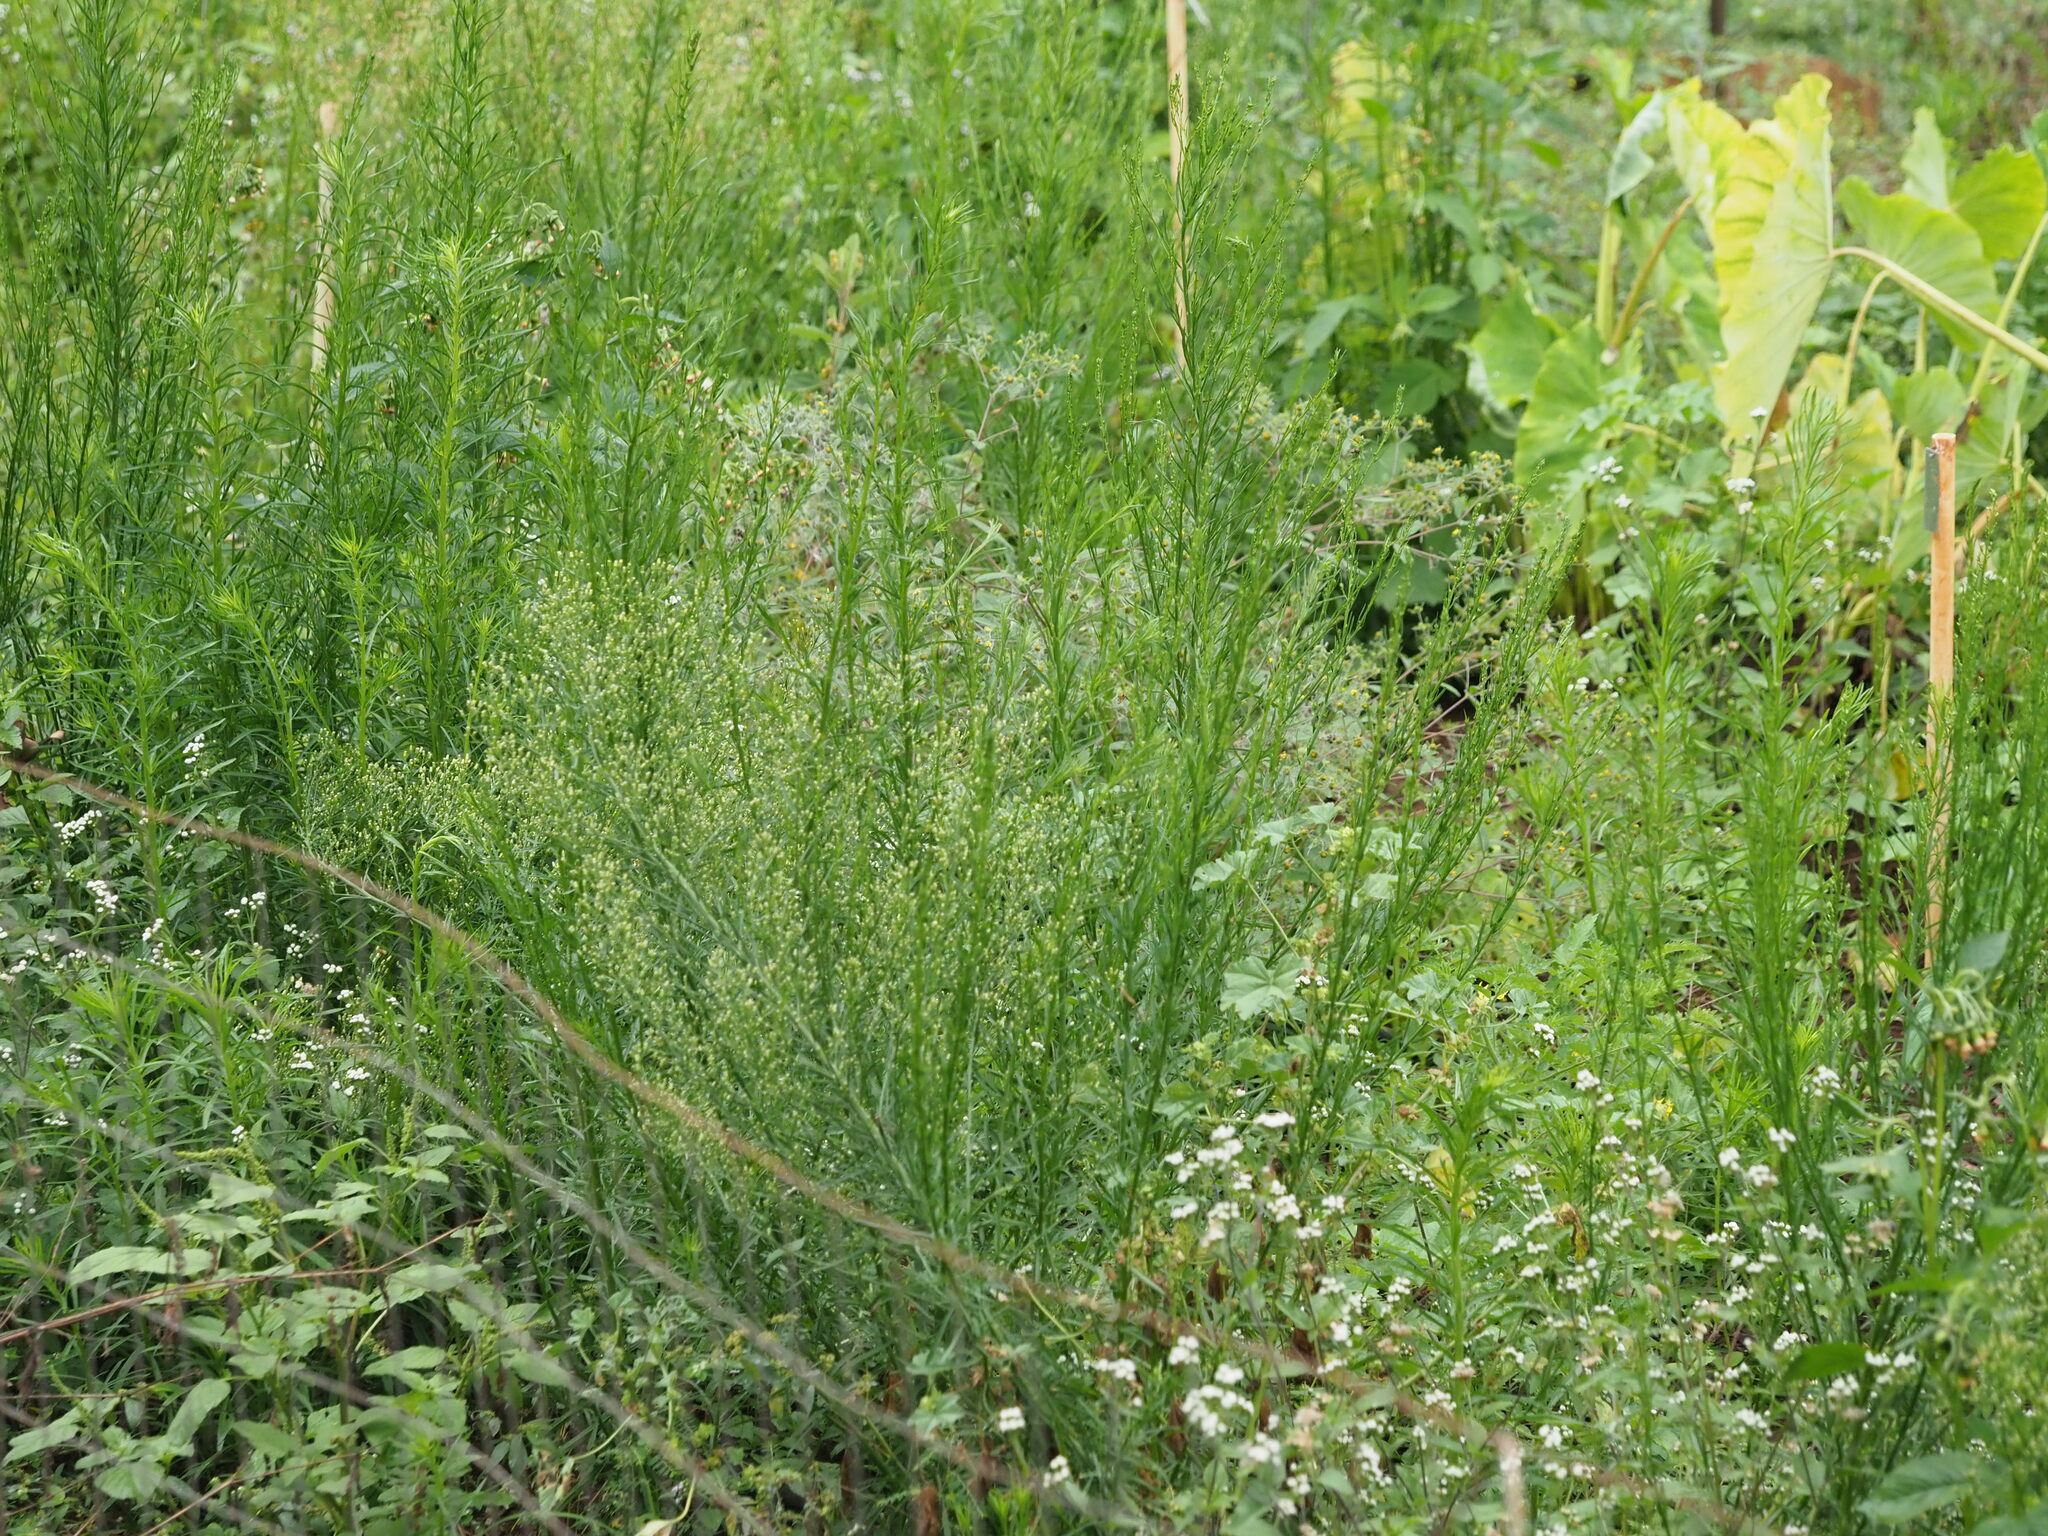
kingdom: Plantae
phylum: Tracheophyta
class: Magnoliopsida
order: Asterales
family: Asteraceae
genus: Erigeron
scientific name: Erigeron canadensis
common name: Canadian fleabane
